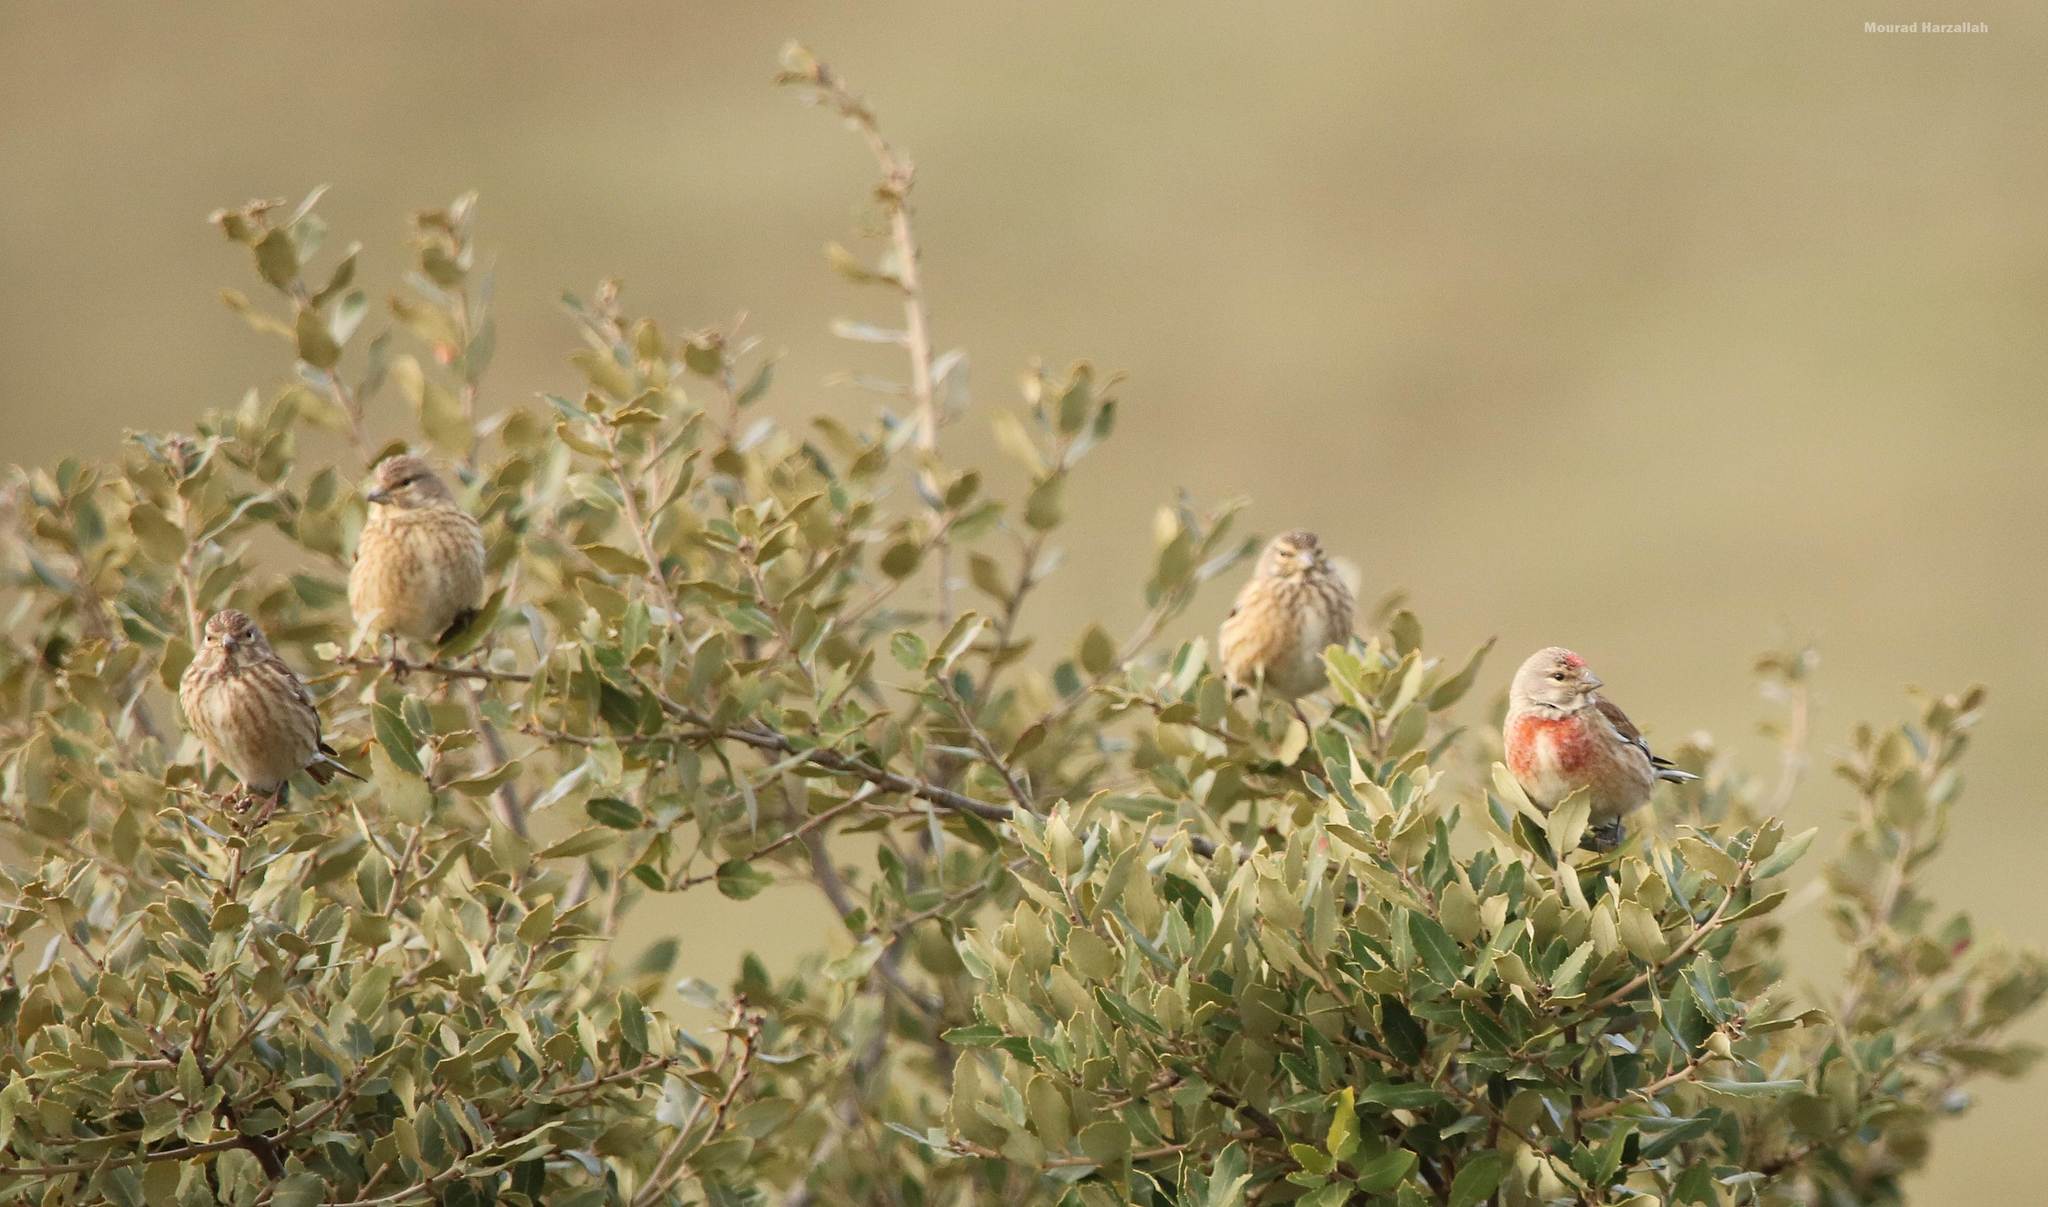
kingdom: Animalia
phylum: Chordata
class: Aves
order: Passeriformes
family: Fringillidae
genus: Linaria
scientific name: Linaria cannabina
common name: Common linnet
